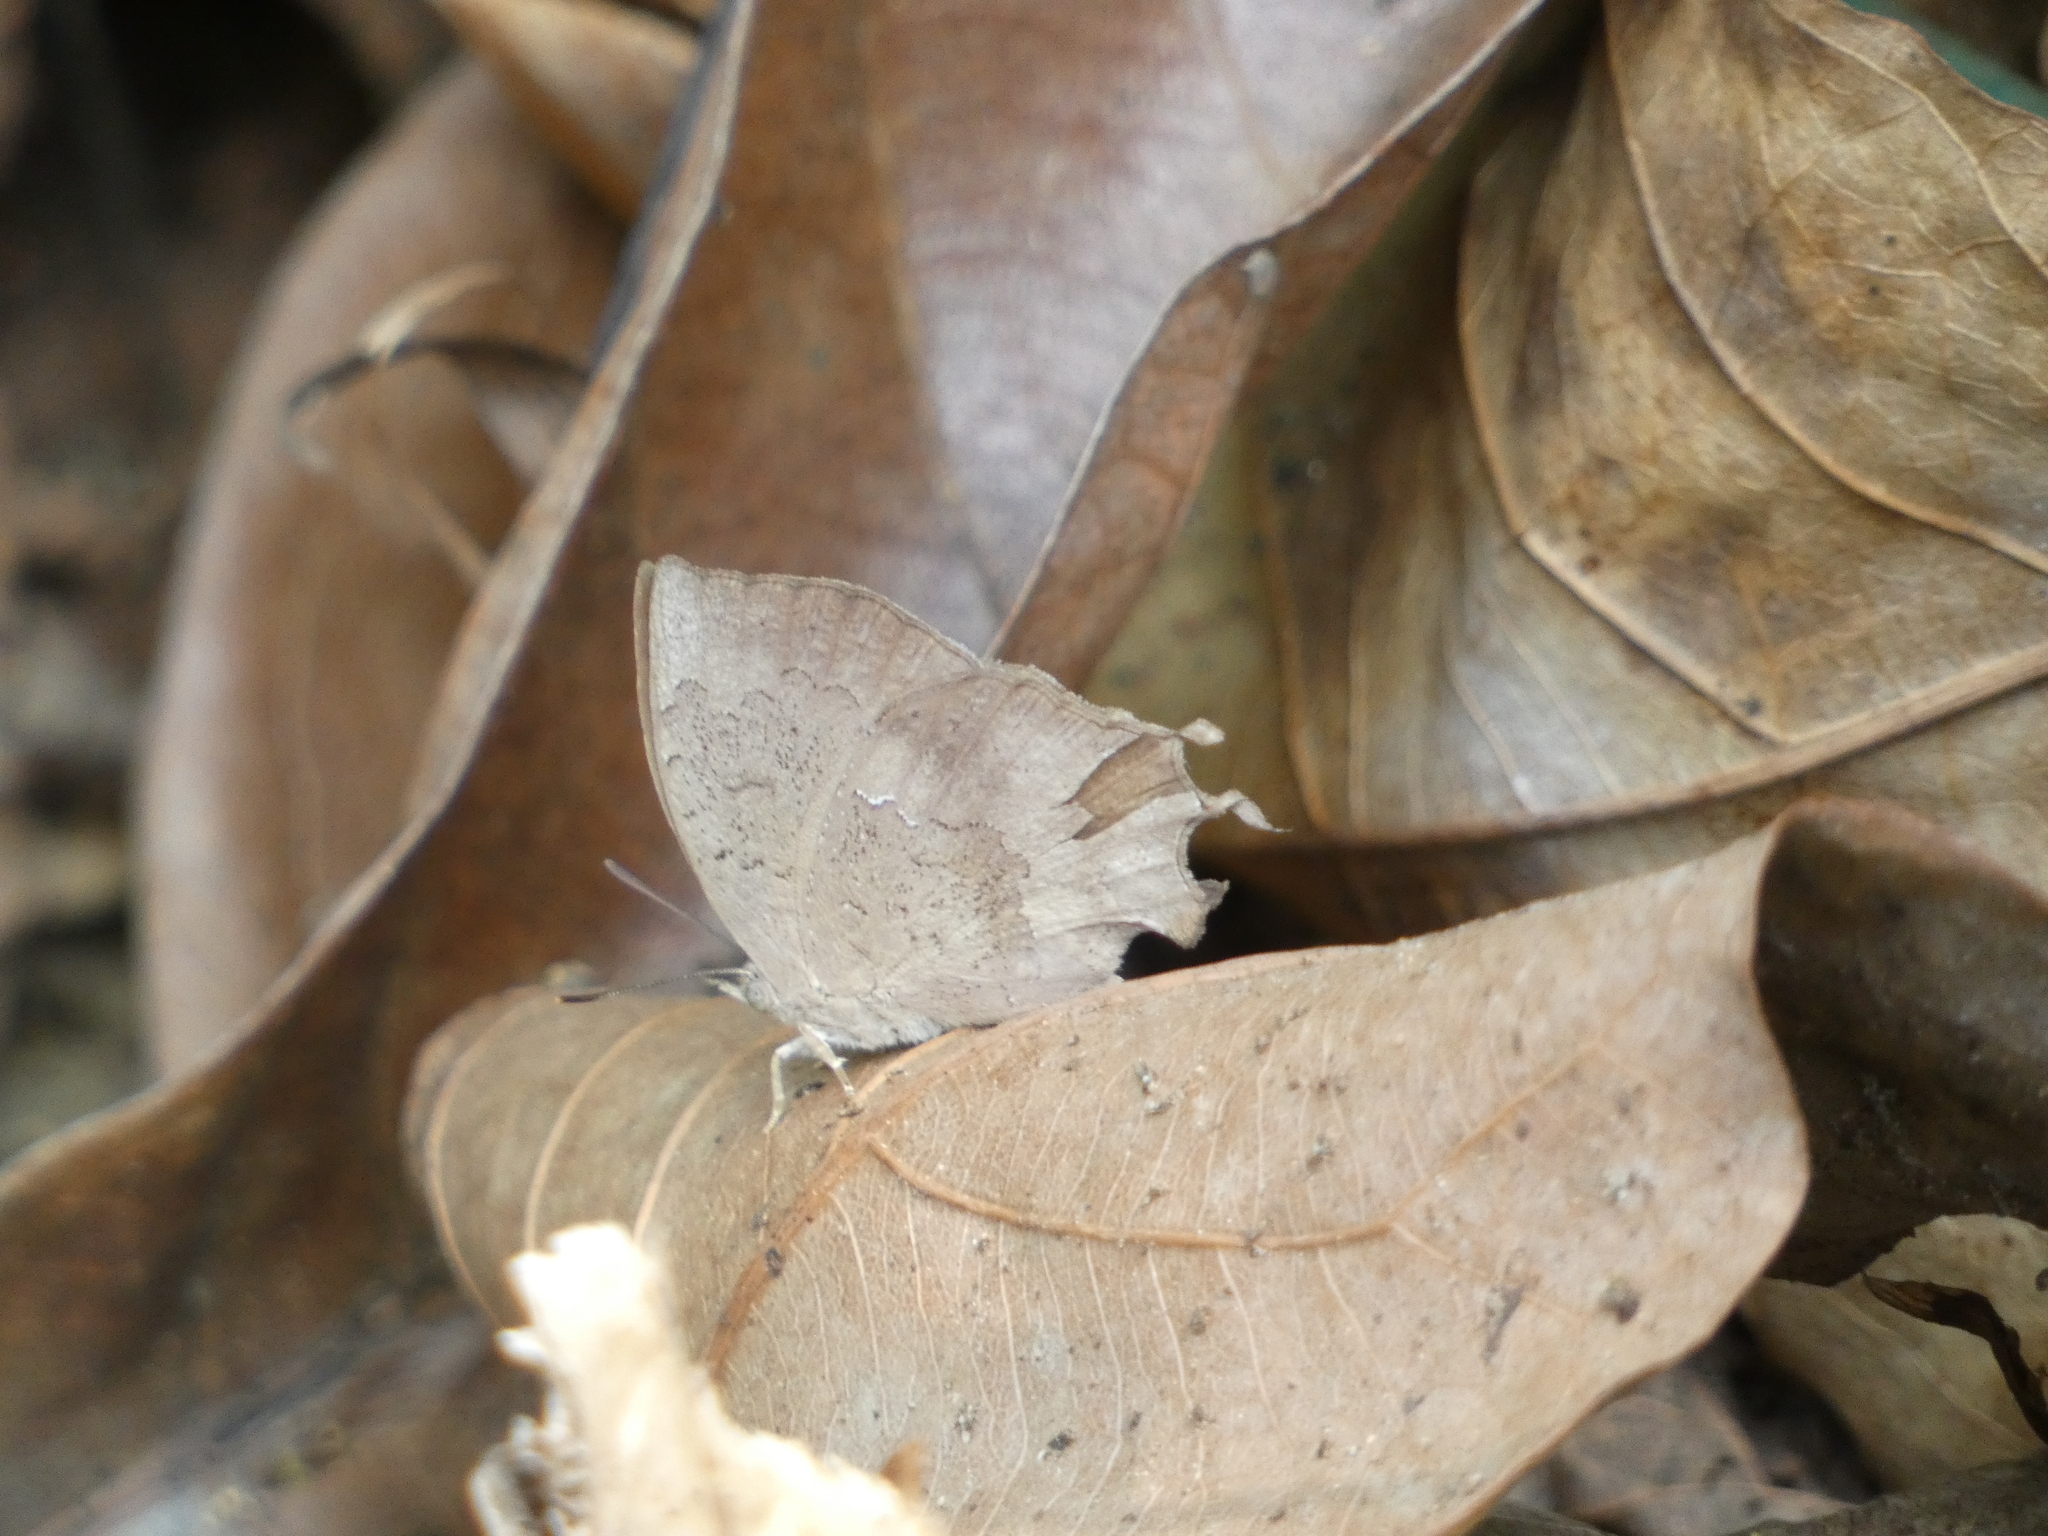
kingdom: Animalia
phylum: Arthropoda
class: Insecta
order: Lepidoptera
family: Lycaenidae
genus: Surendra
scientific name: Surendra quercetorum
